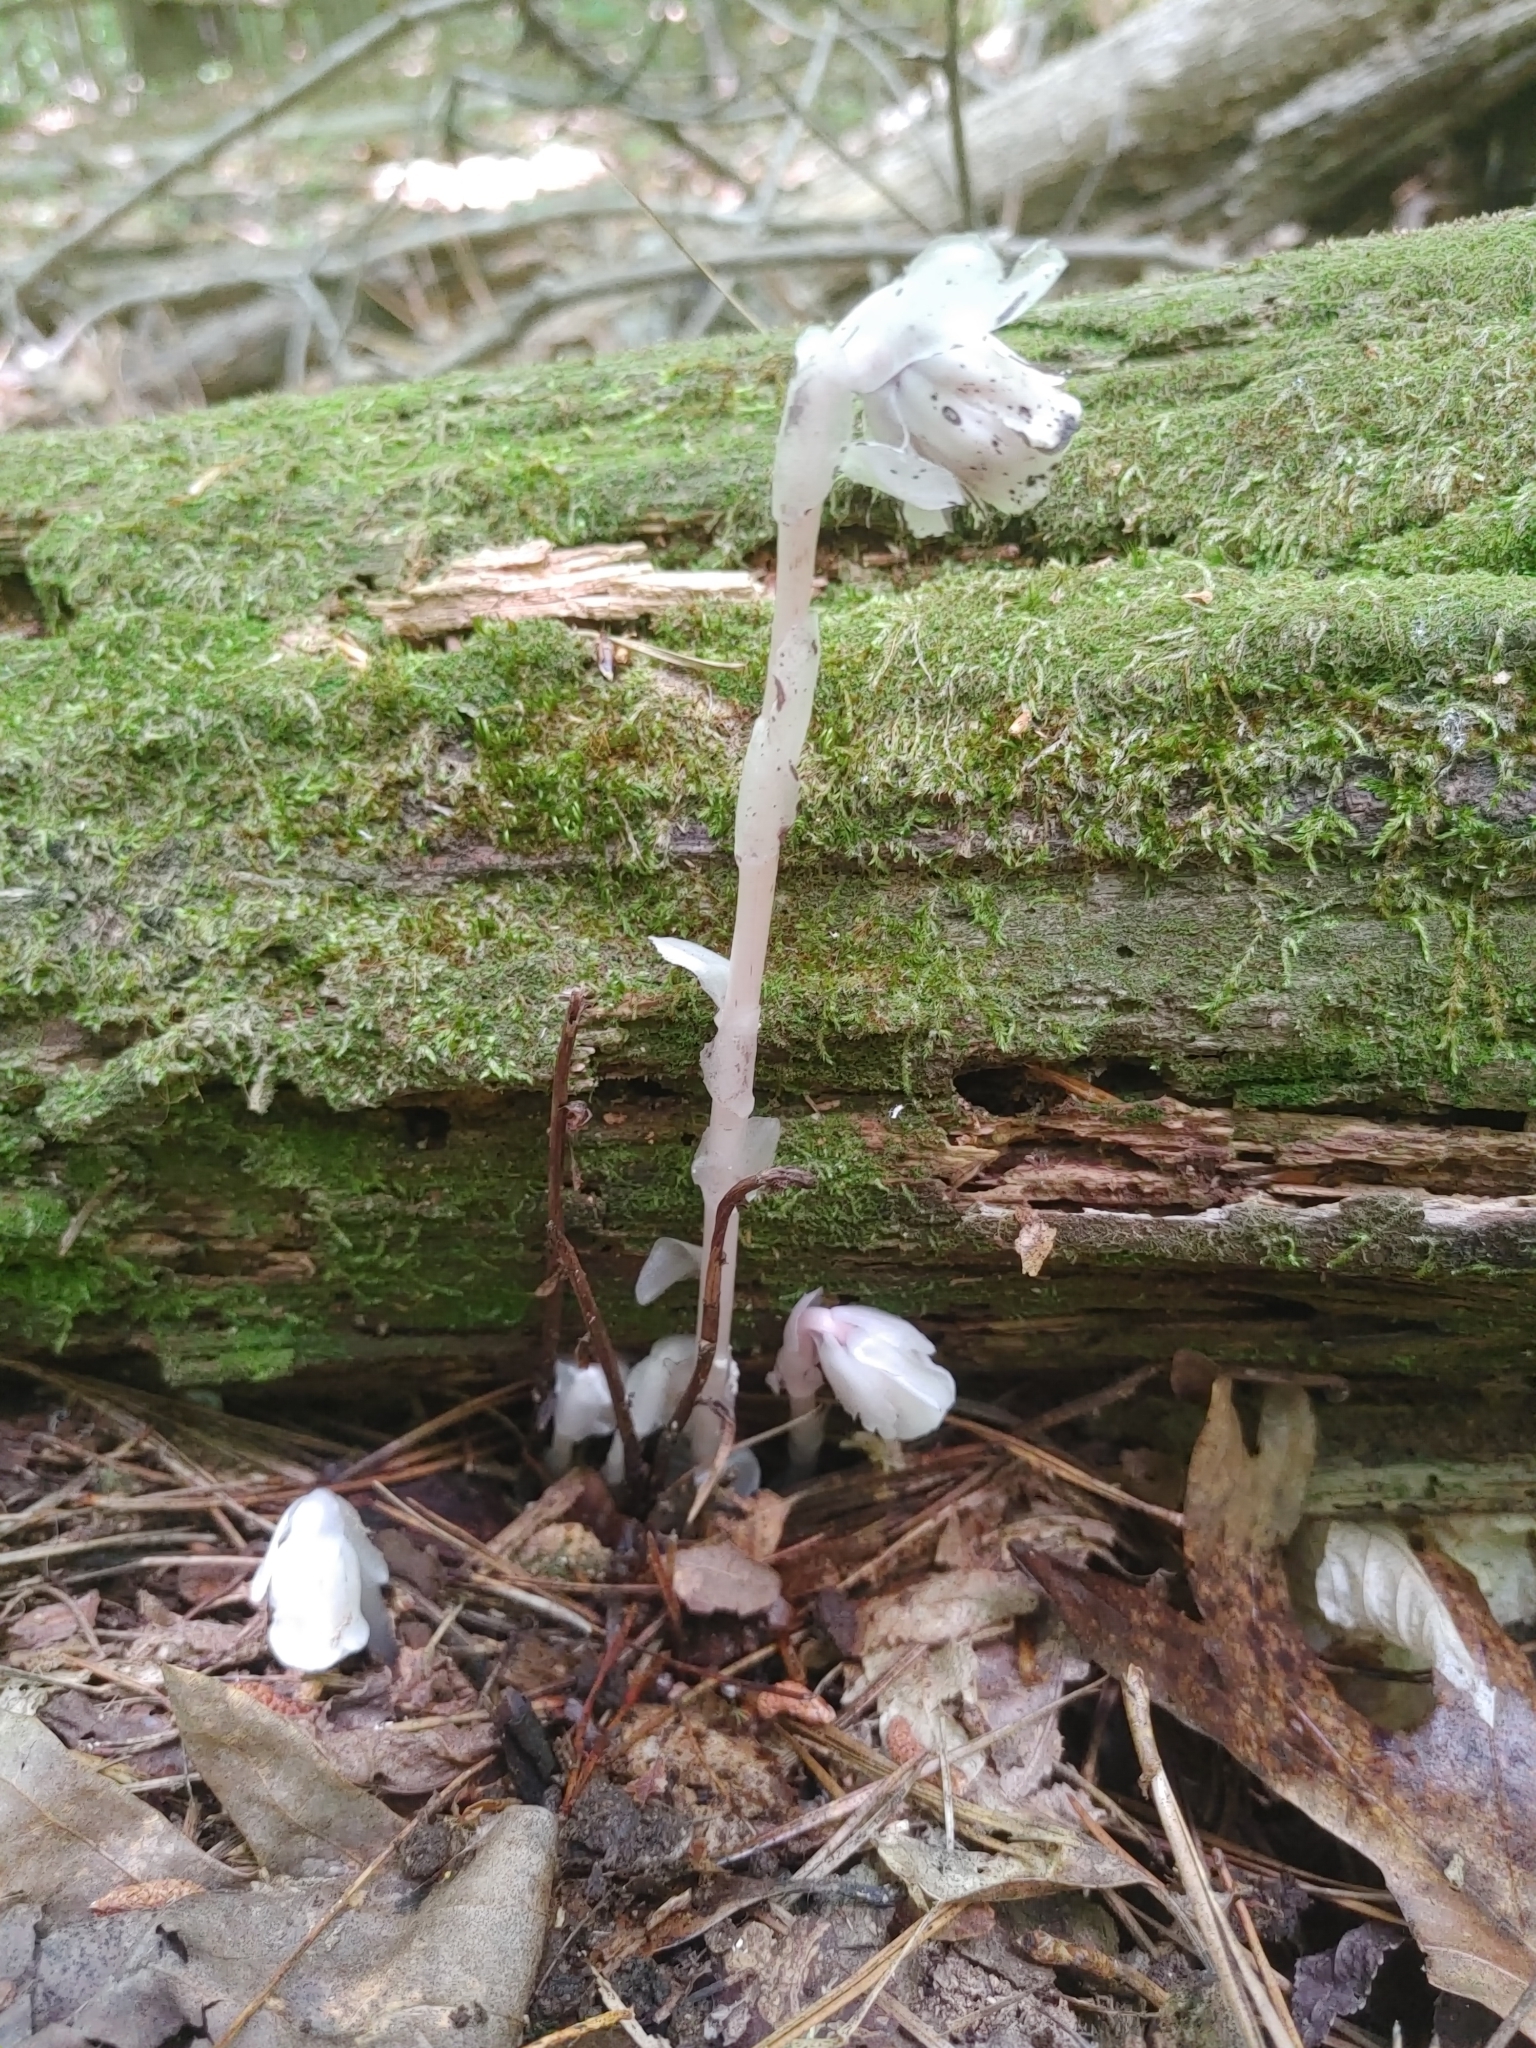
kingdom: Plantae
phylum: Tracheophyta
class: Magnoliopsida
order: Ericales
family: Ericaceae
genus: Monotropa
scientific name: Monotropa uniflora
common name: Convulsion root
